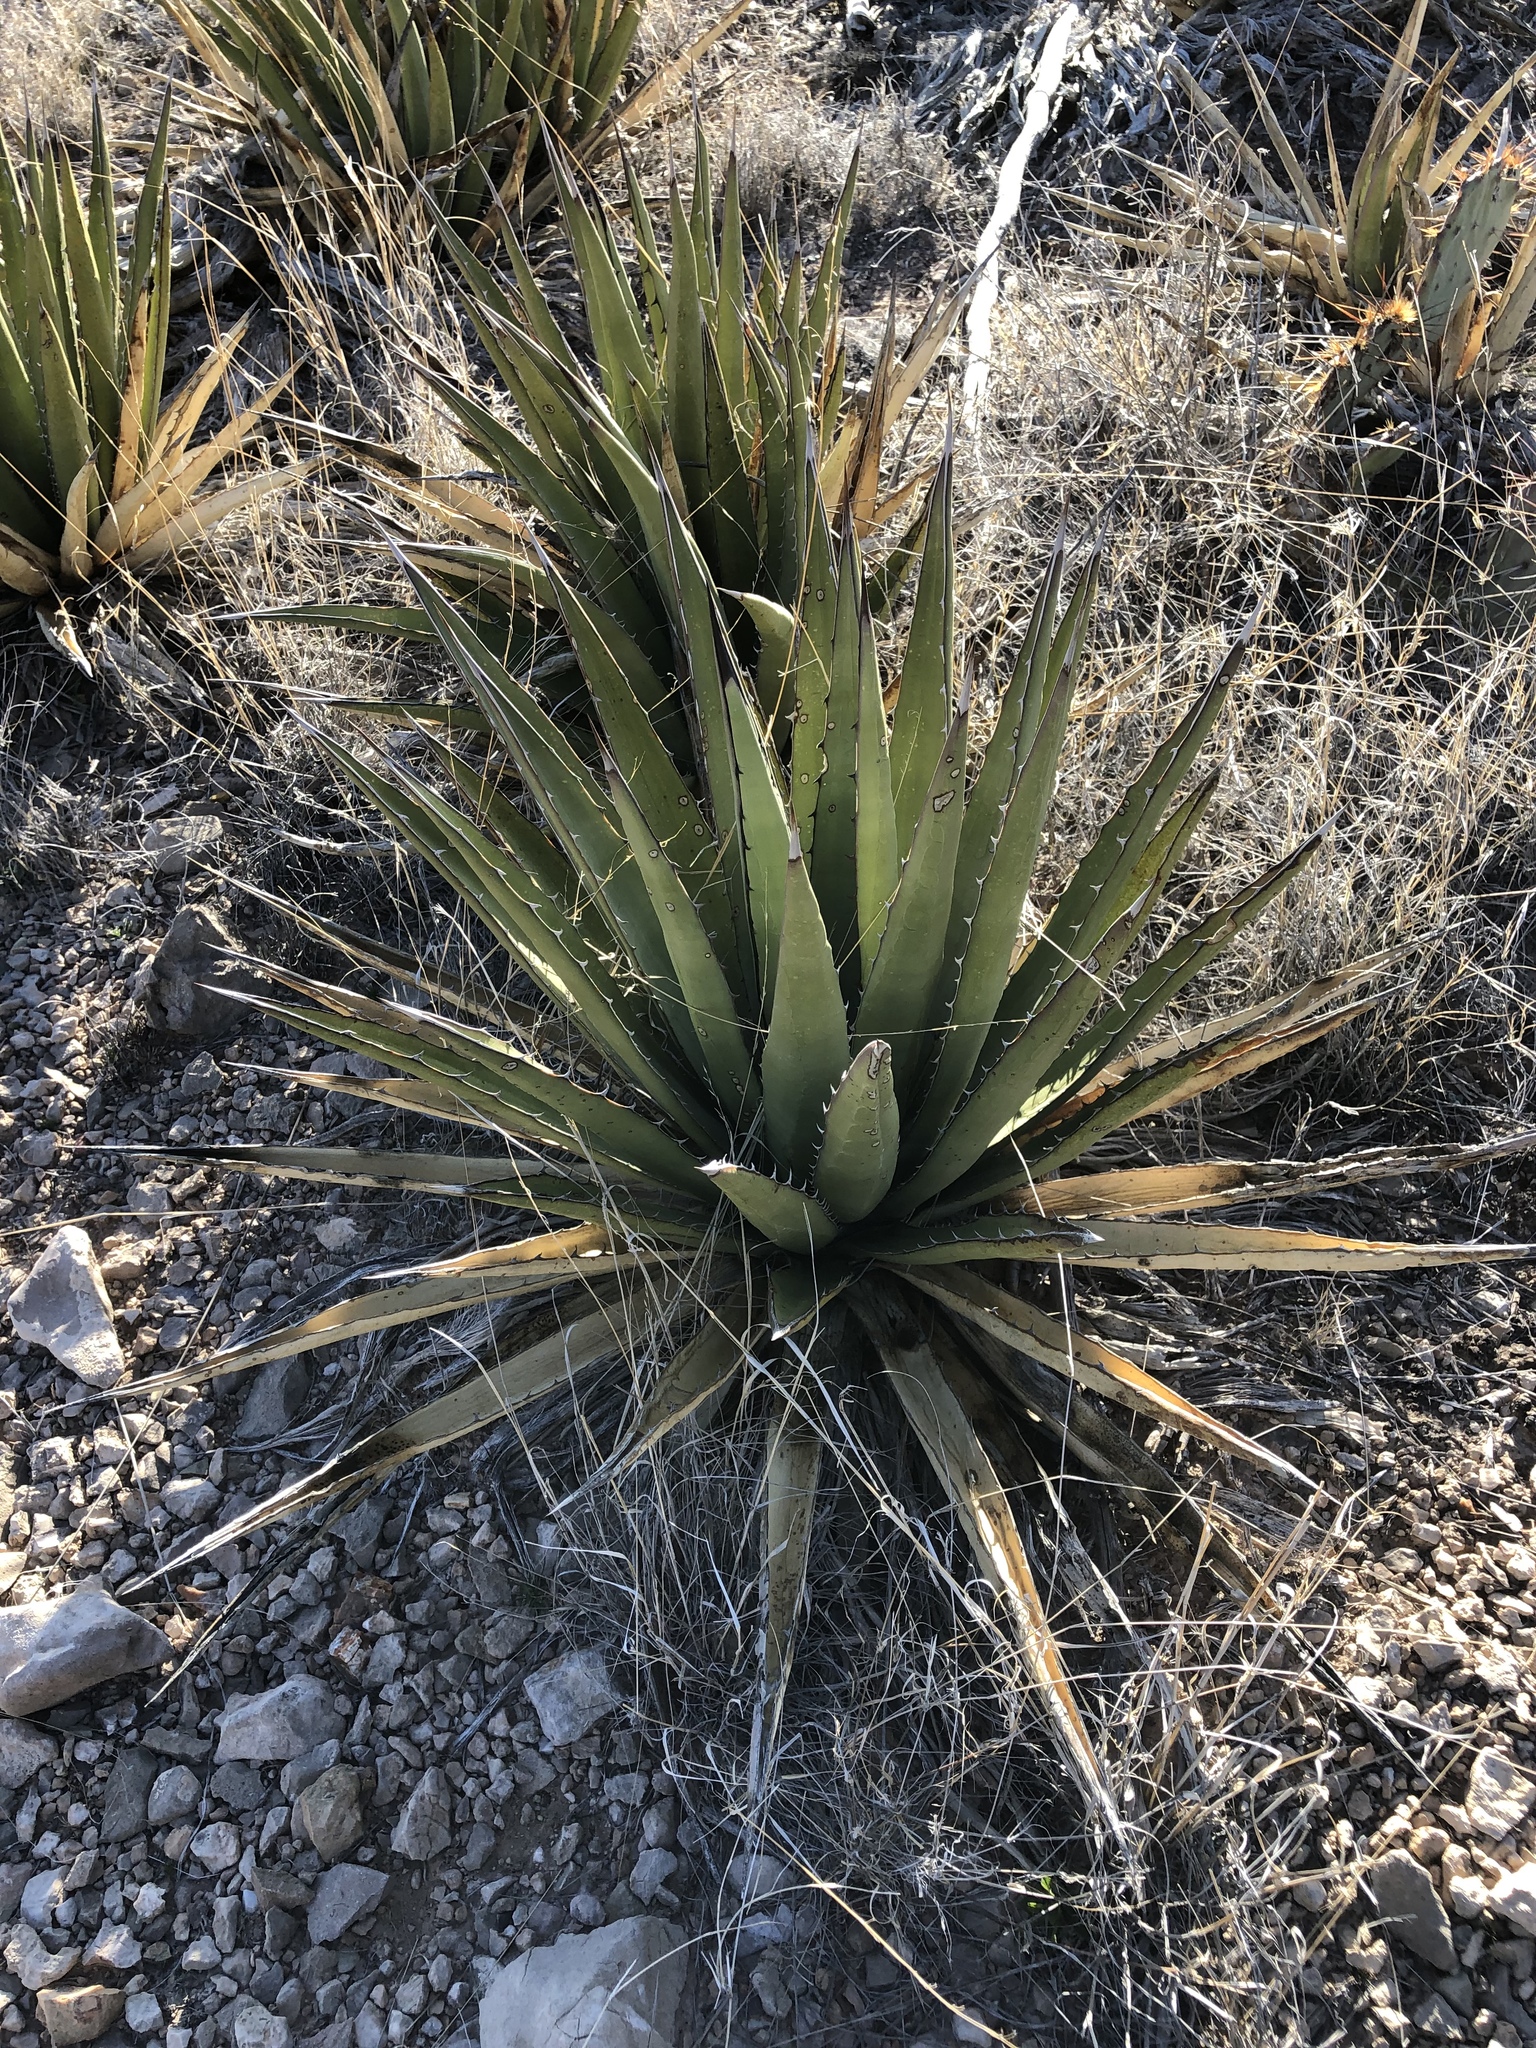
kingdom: Plantae
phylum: Tracheophyta
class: Liliopsida
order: Asparagales
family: Asparagaceae
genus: Agave
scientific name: Agave lechuguilla
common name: Lecheguilla agave
